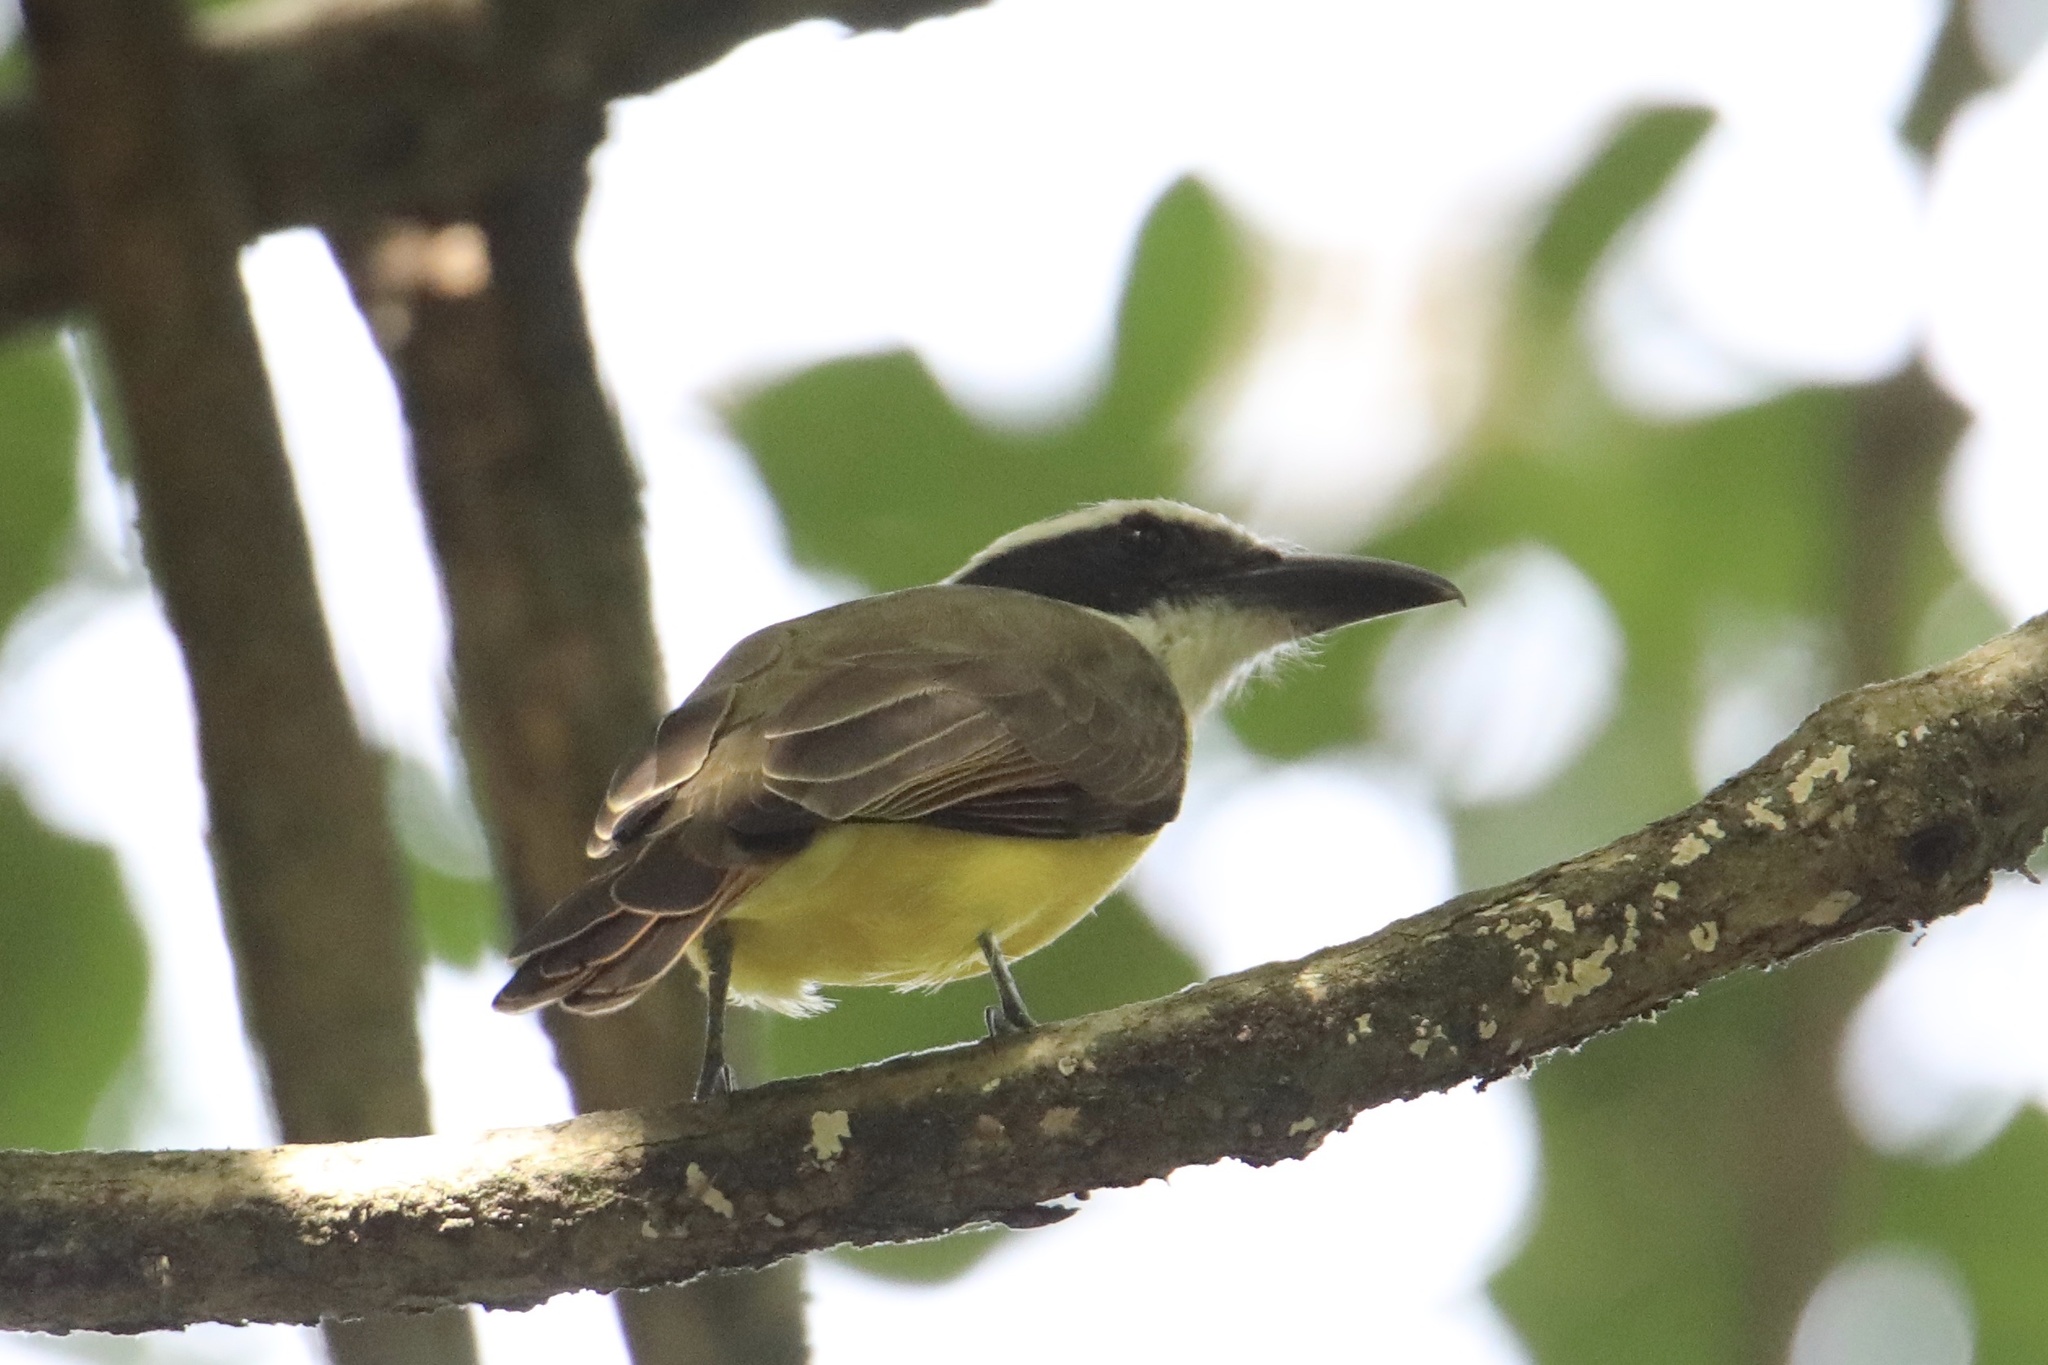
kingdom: Animalia
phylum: Chordata
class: Aves
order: Passeriformes
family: Tyrannidae
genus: Megarynchus
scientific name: Megarynchus pitangua
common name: Boat-billed flycatcher
